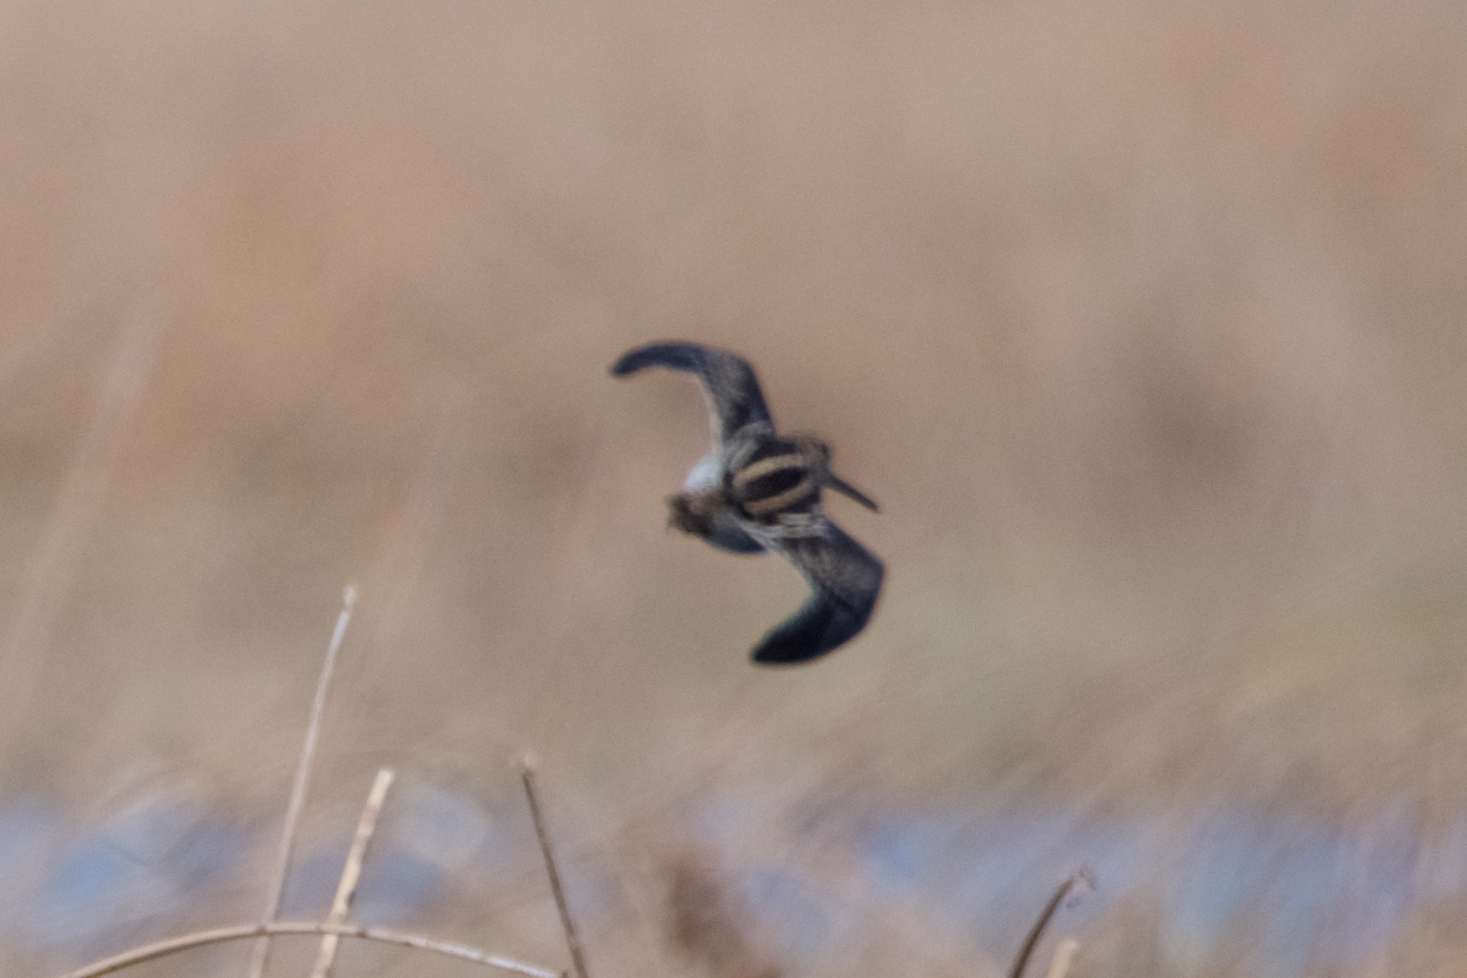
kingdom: Animalia
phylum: Chordata
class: Aves
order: Charadriiformes
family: Scolopacidae
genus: Gallinago
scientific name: Gallinago delicata
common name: Wilson's snipe
